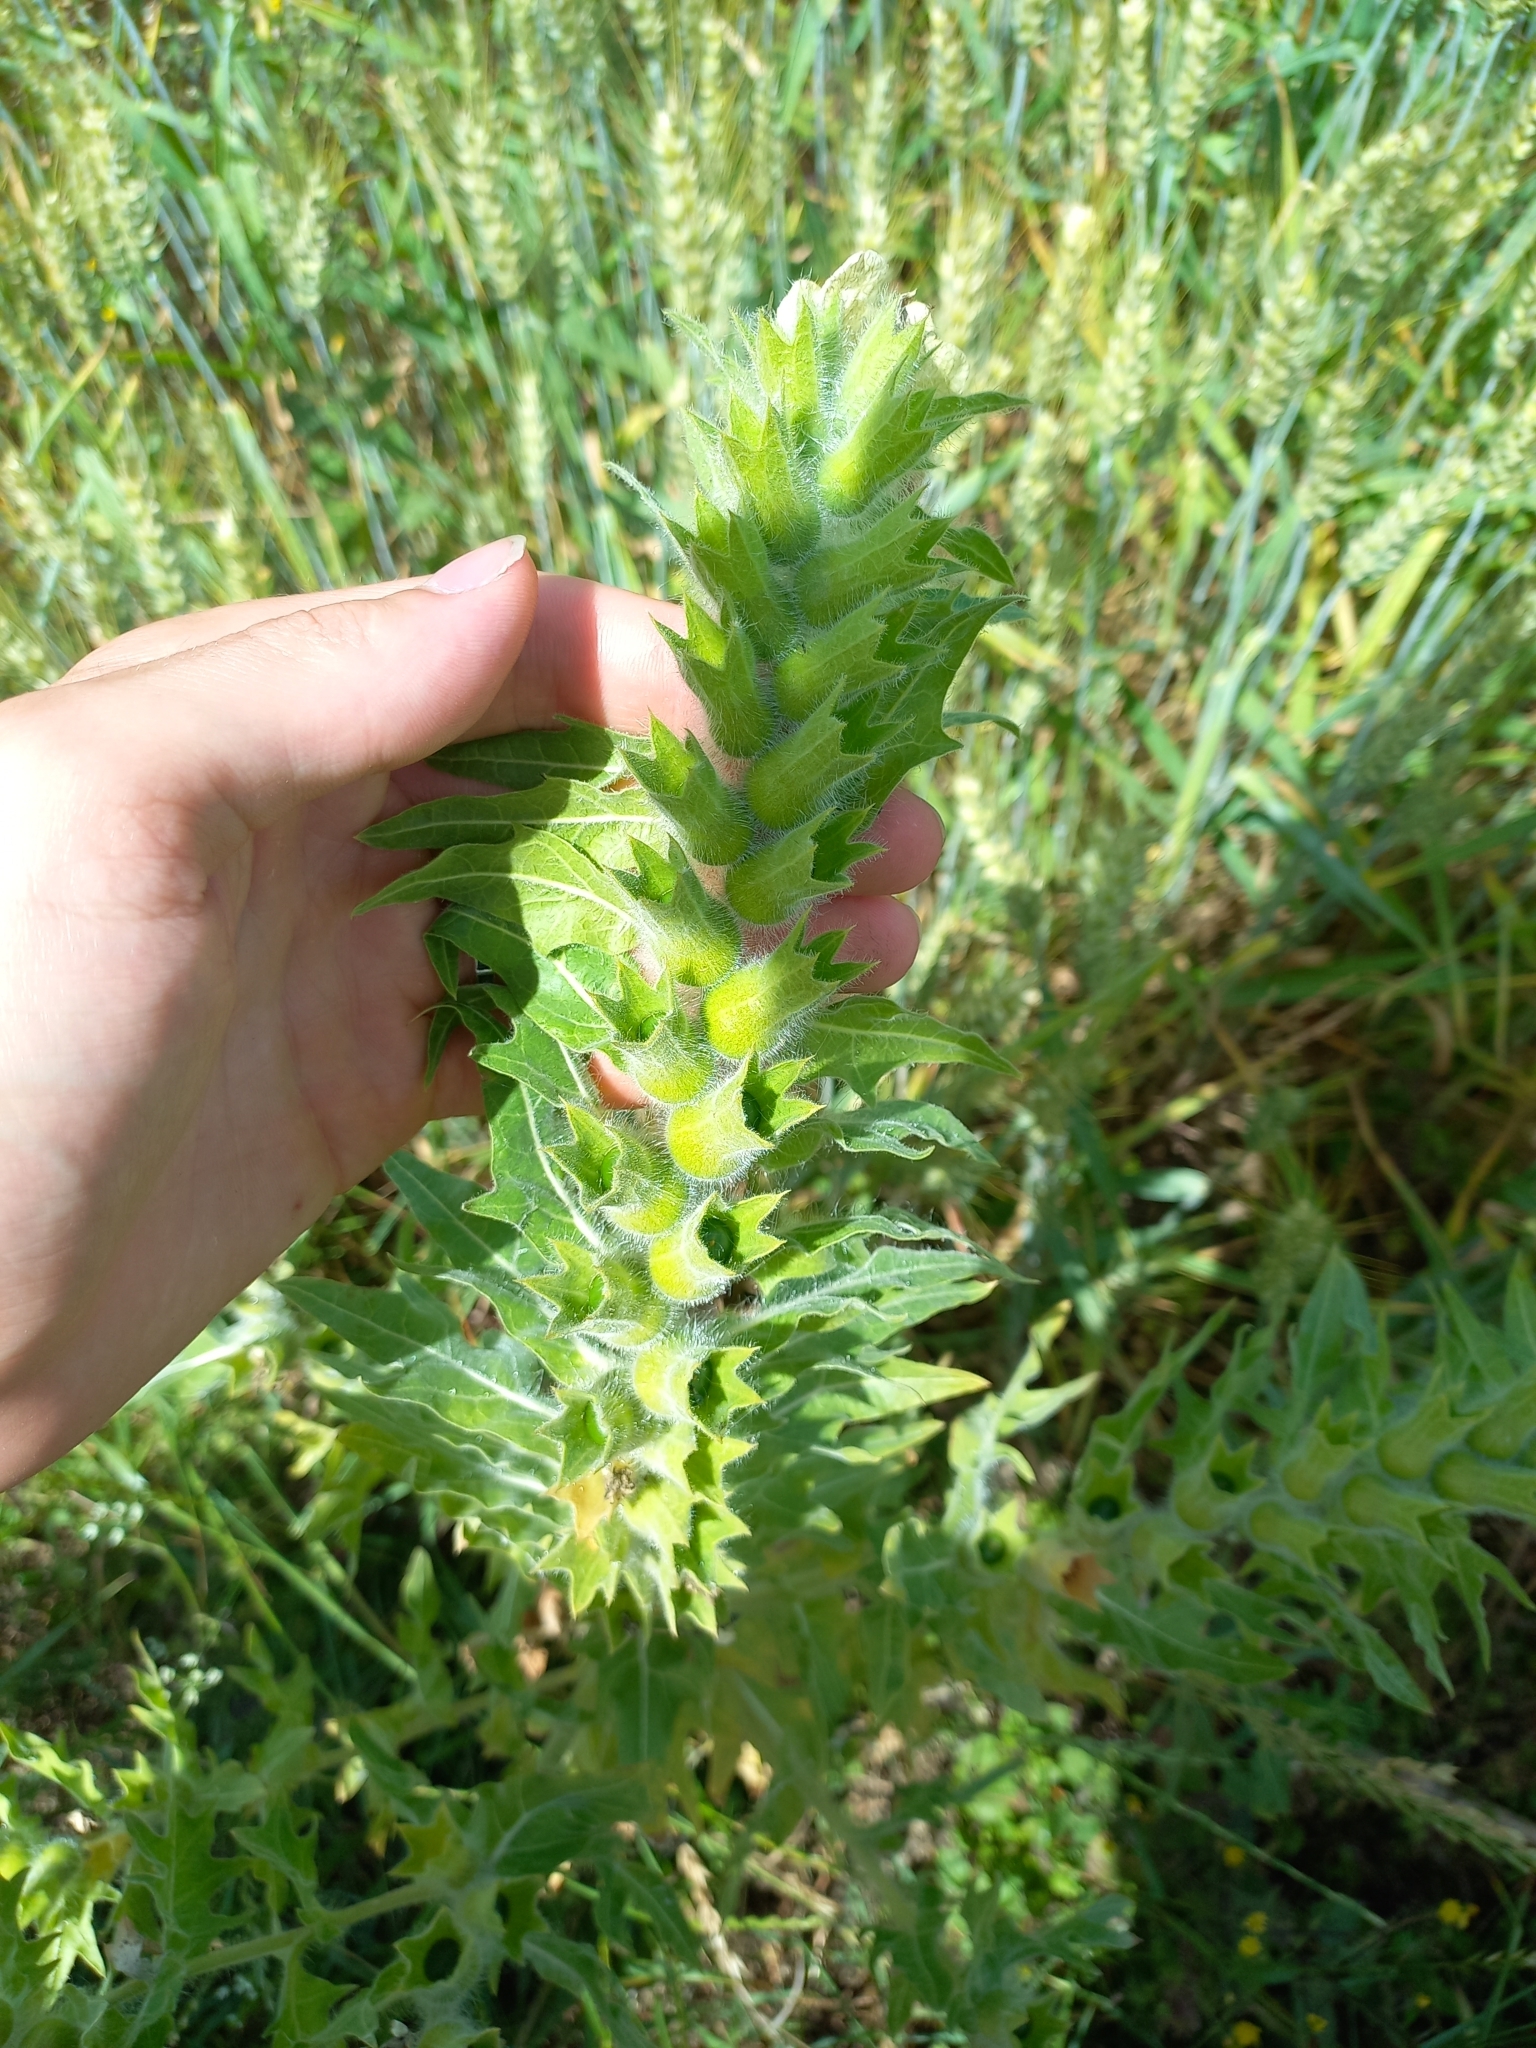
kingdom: Plantae
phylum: Tracheophyta
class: Magnoliopsida
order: Solanales
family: Solanaceae
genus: Hyoscyamus
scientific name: Hyoscyamus niger
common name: Henbane
